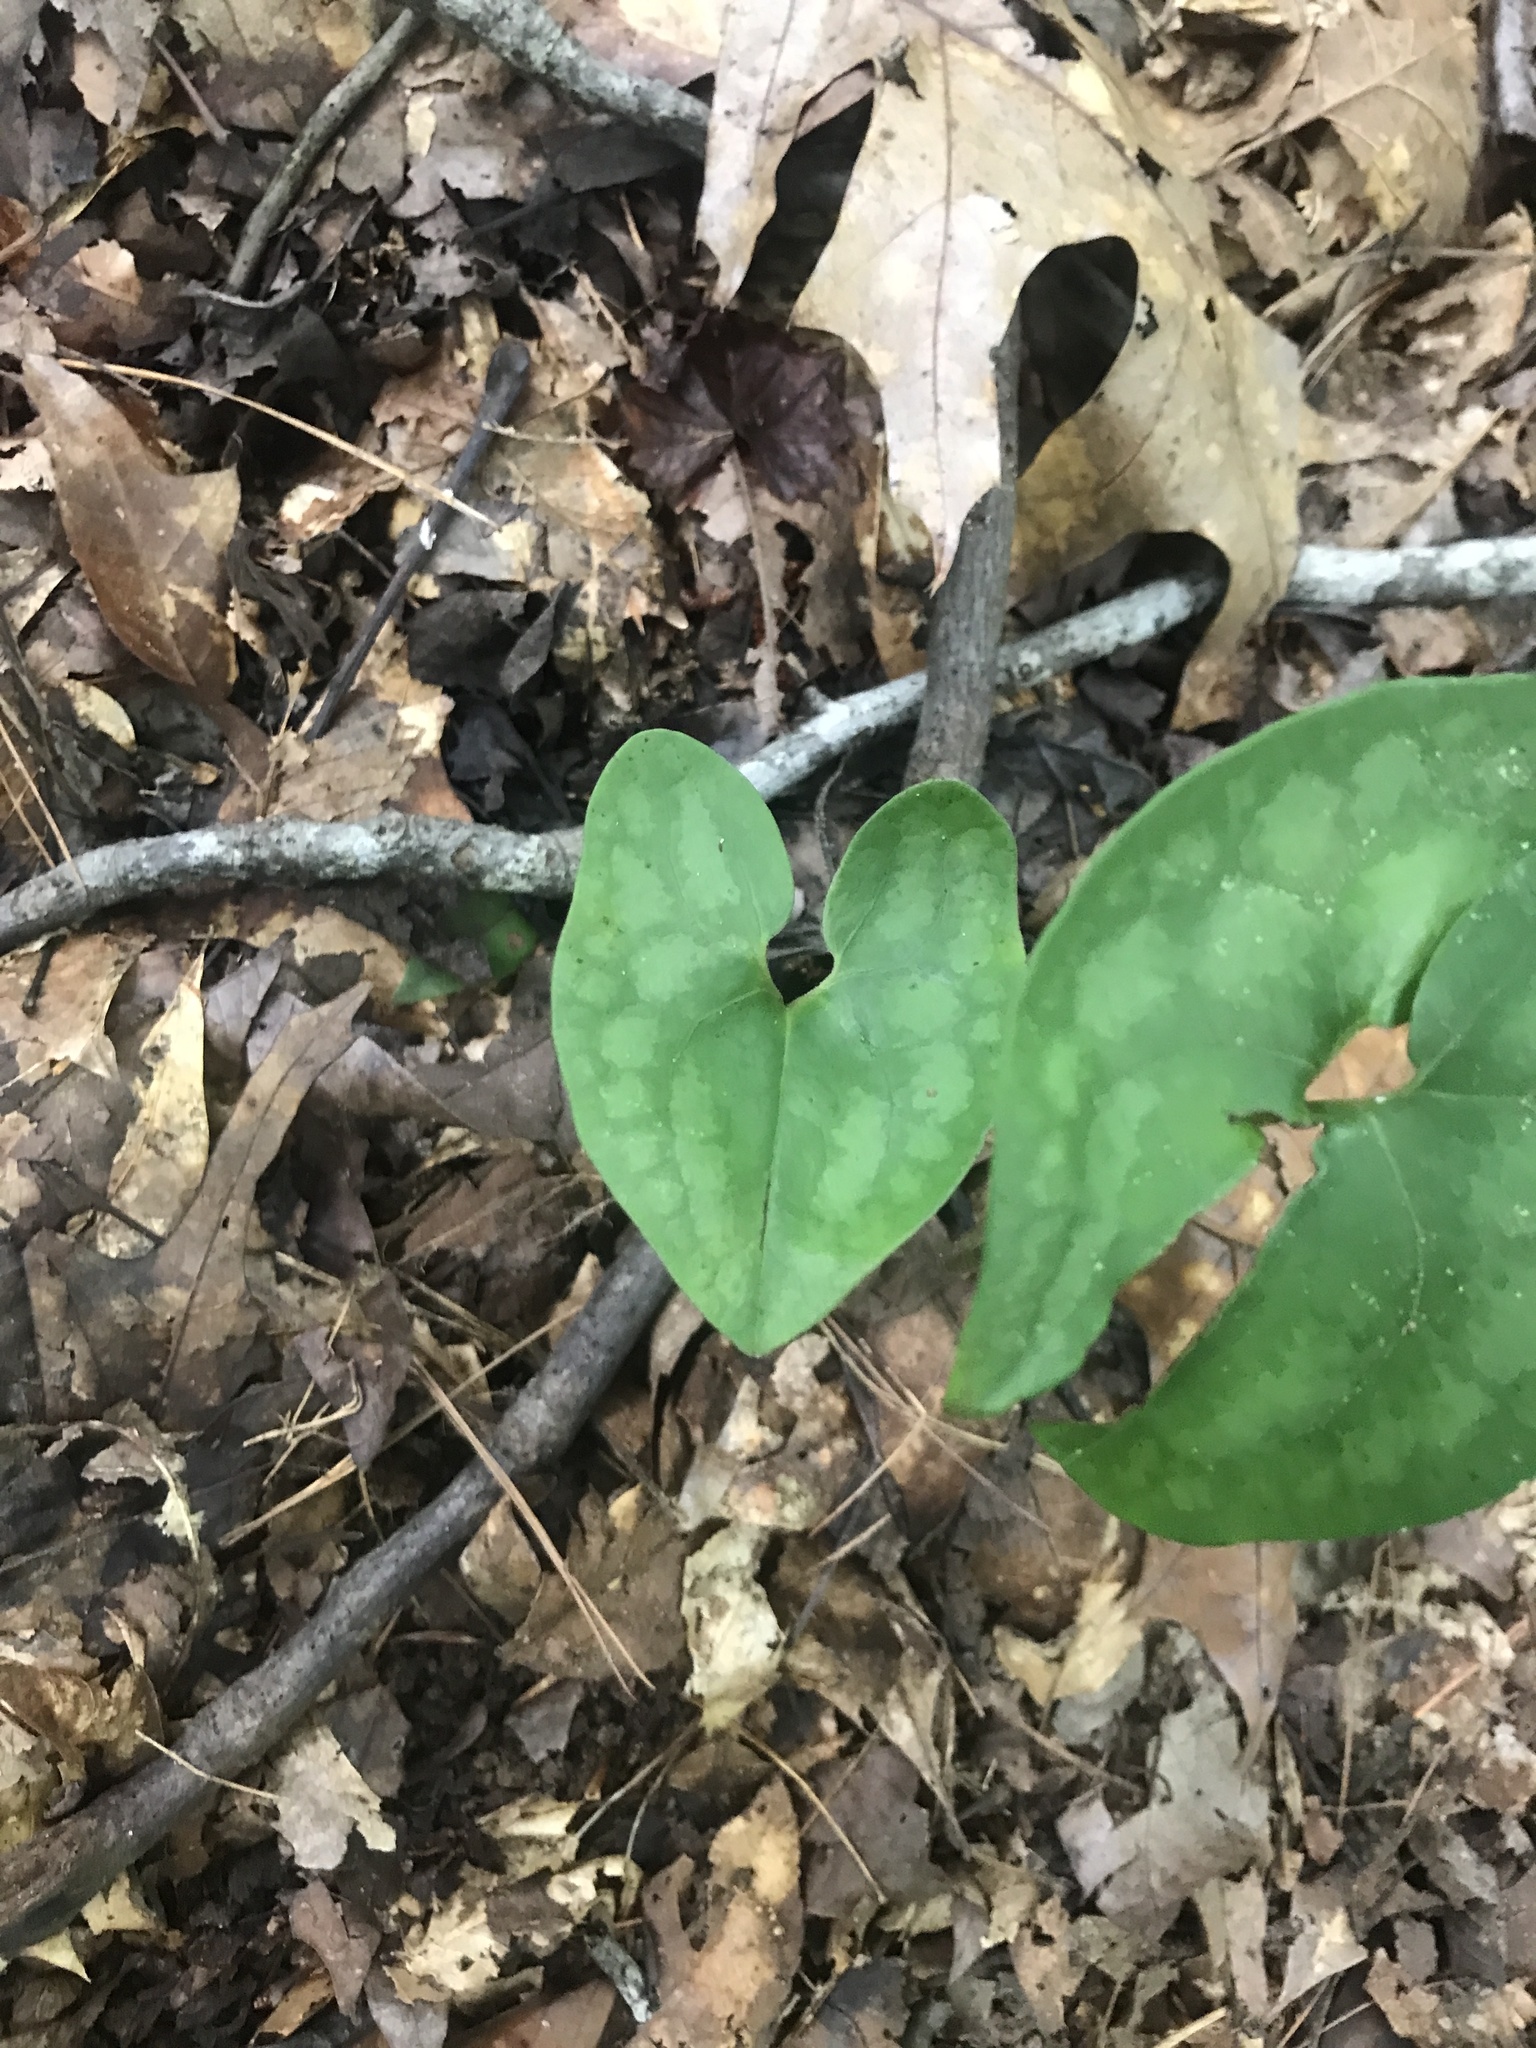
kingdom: Plantae
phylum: Tracheophyta
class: Magnoliopsida
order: Piperales
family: Aristolochiaceae
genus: Hexastylis
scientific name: Hexastylis arifolia
